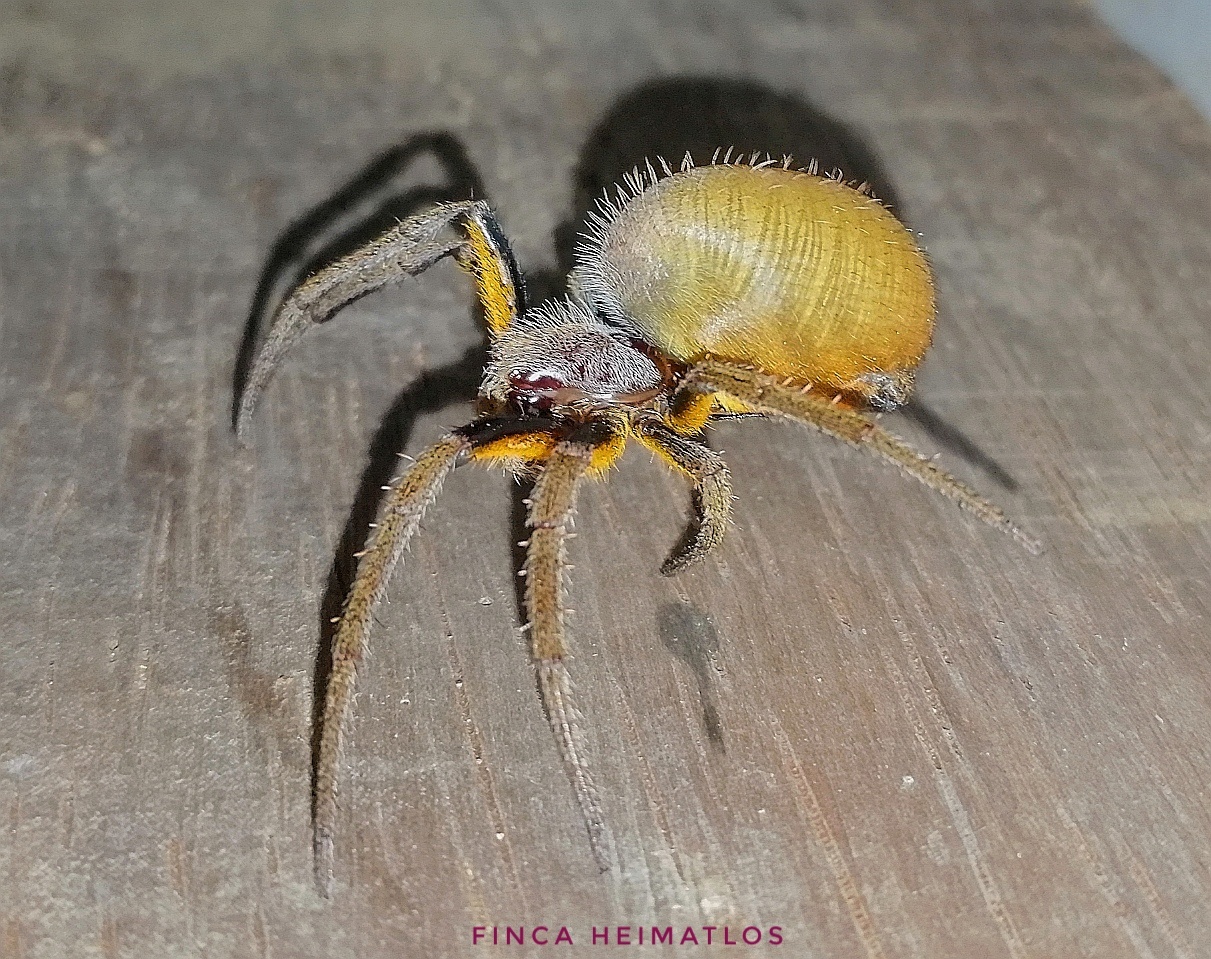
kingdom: Animalia
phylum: Arthropoda
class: Arachnida
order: Araneae
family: Araneidae
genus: Eriophora
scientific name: Eriophora
